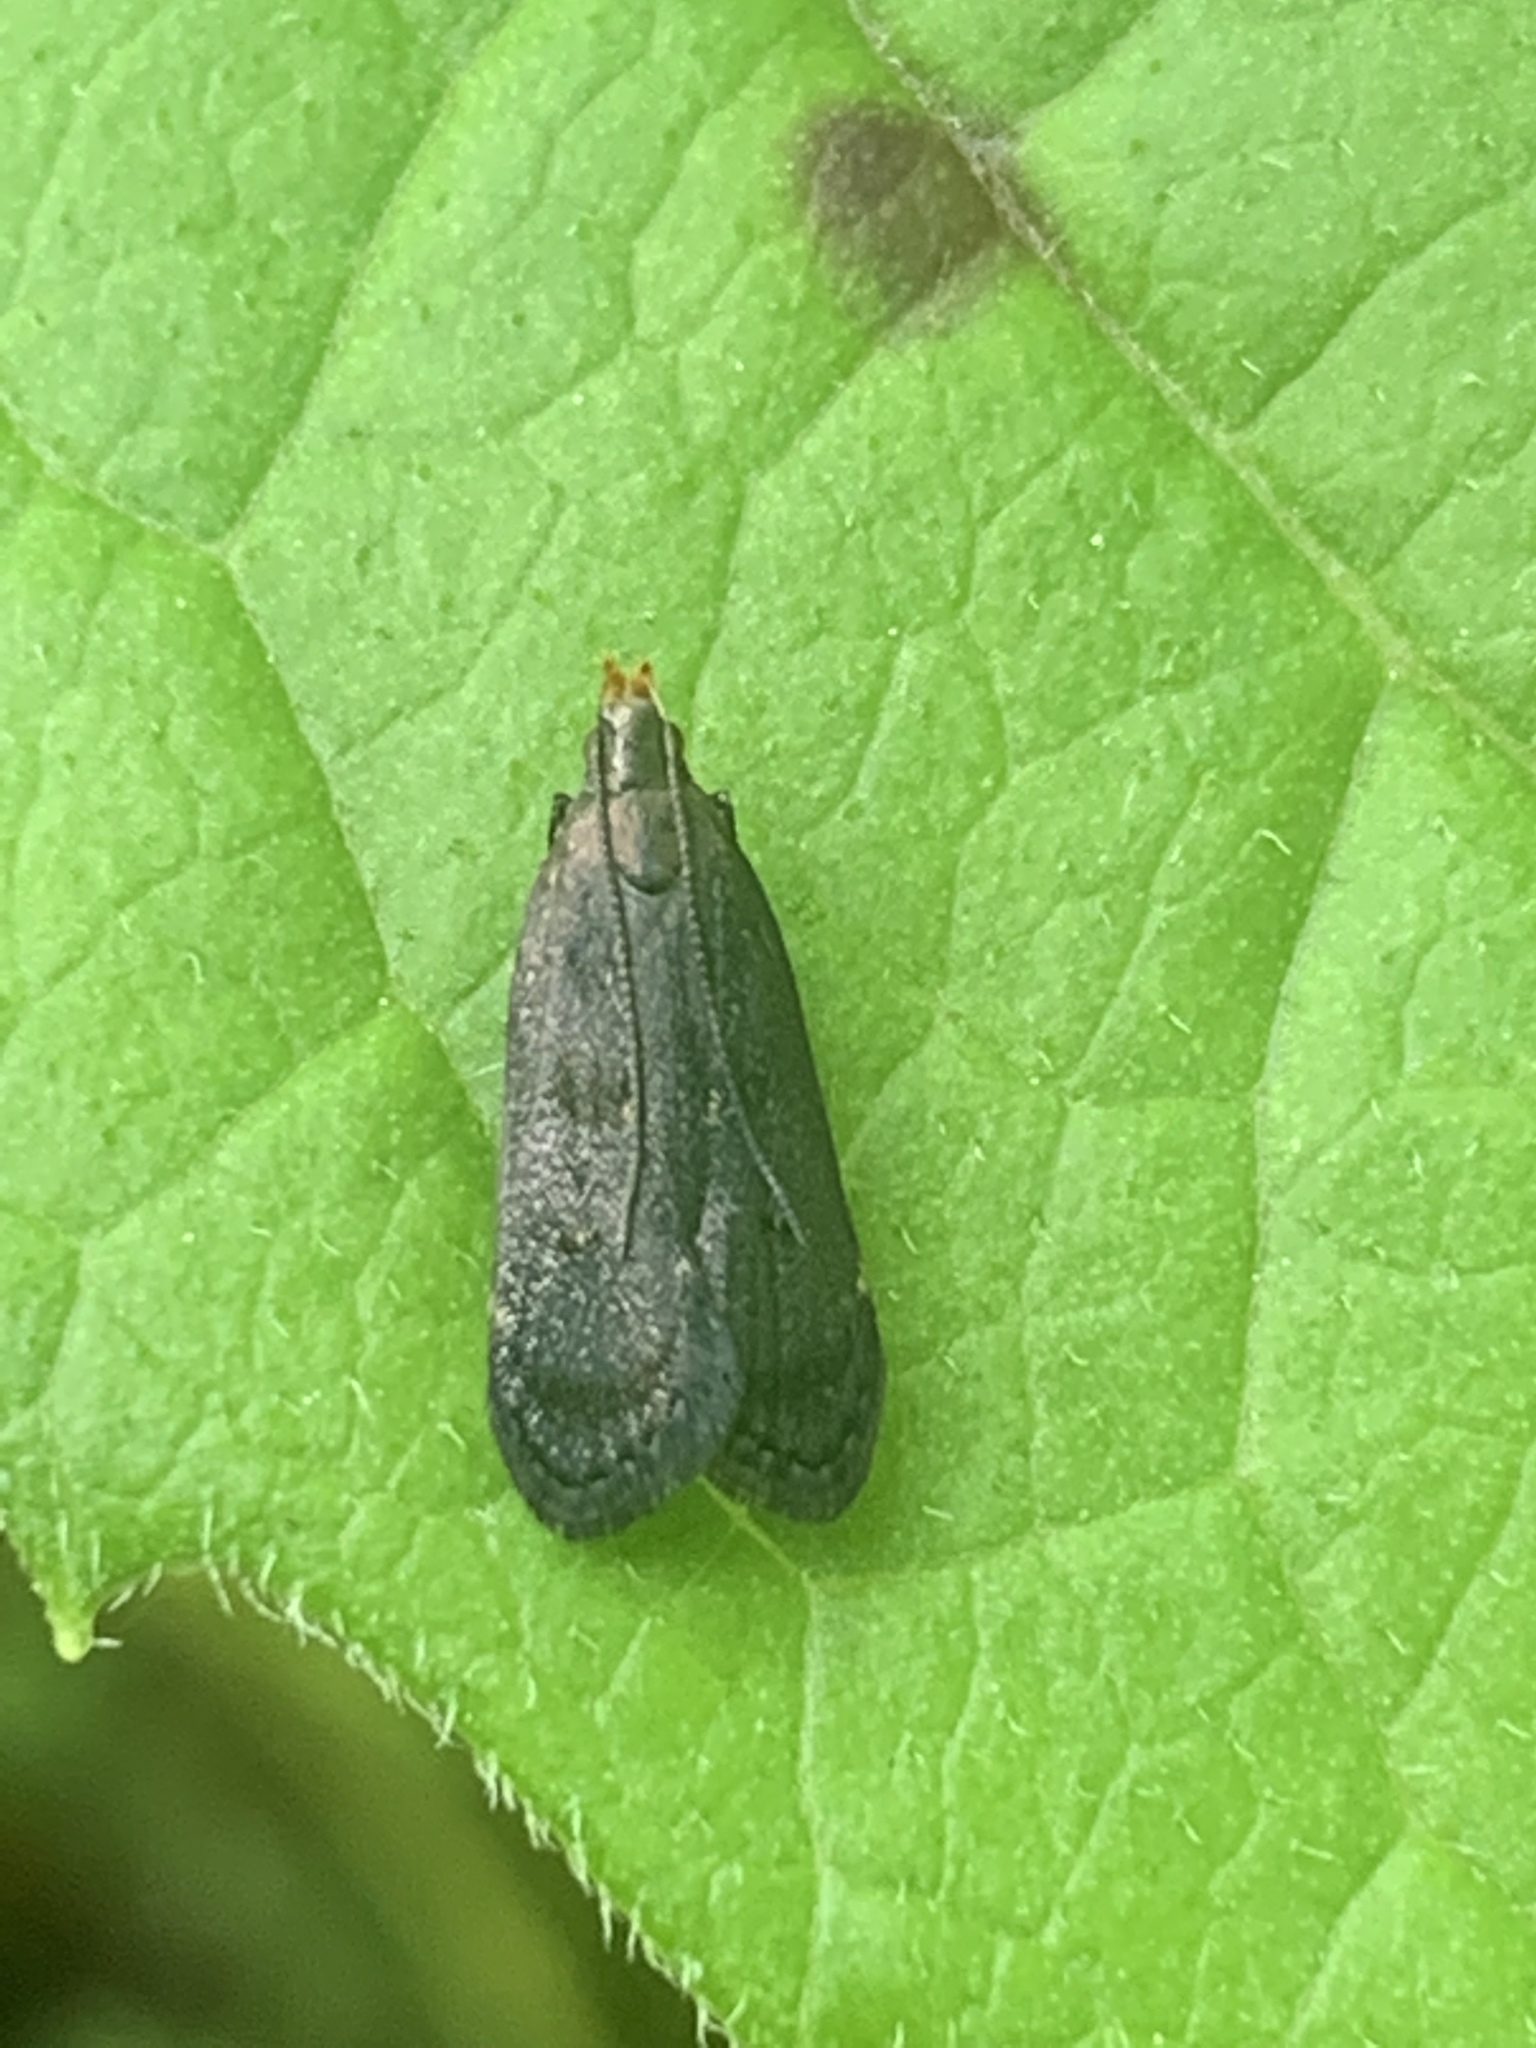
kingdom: Animalia
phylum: Arthropoda
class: Insecta
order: Lepidoptera
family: Gelechiidae
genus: Dichomeris
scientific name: Dichomeris juncidella
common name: Orange-dotted dichomeris moth
